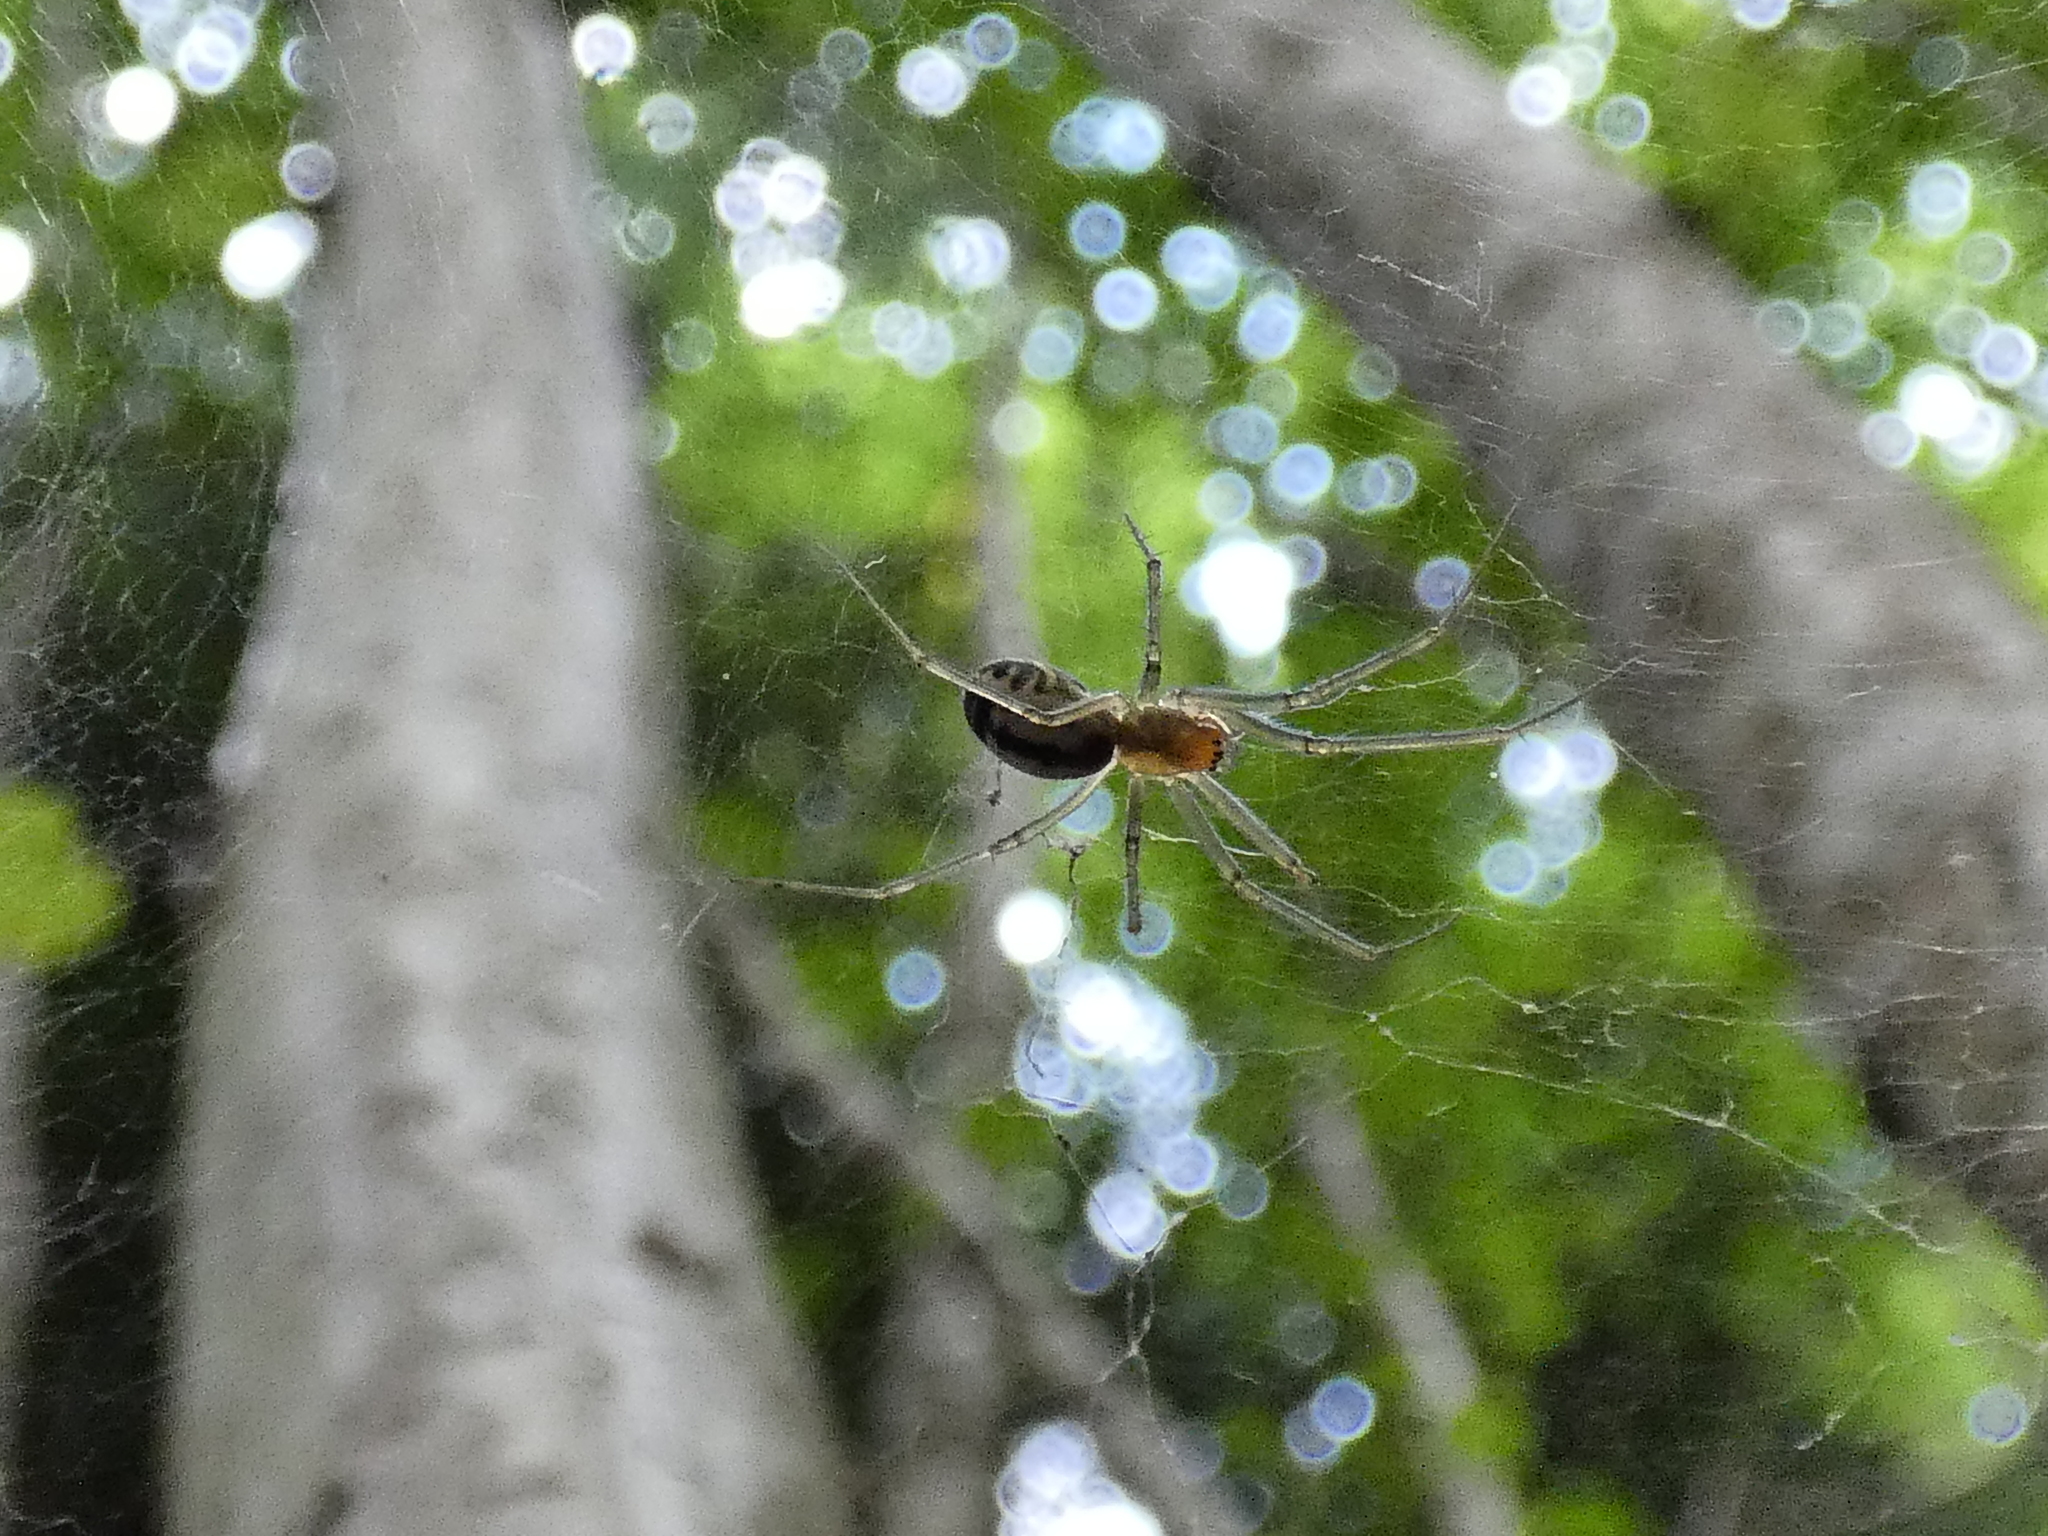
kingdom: Animalia
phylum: Arthropoda
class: Arachnida
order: Araneae
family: Linyphiidae
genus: Neriene
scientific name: Neriene emphana
